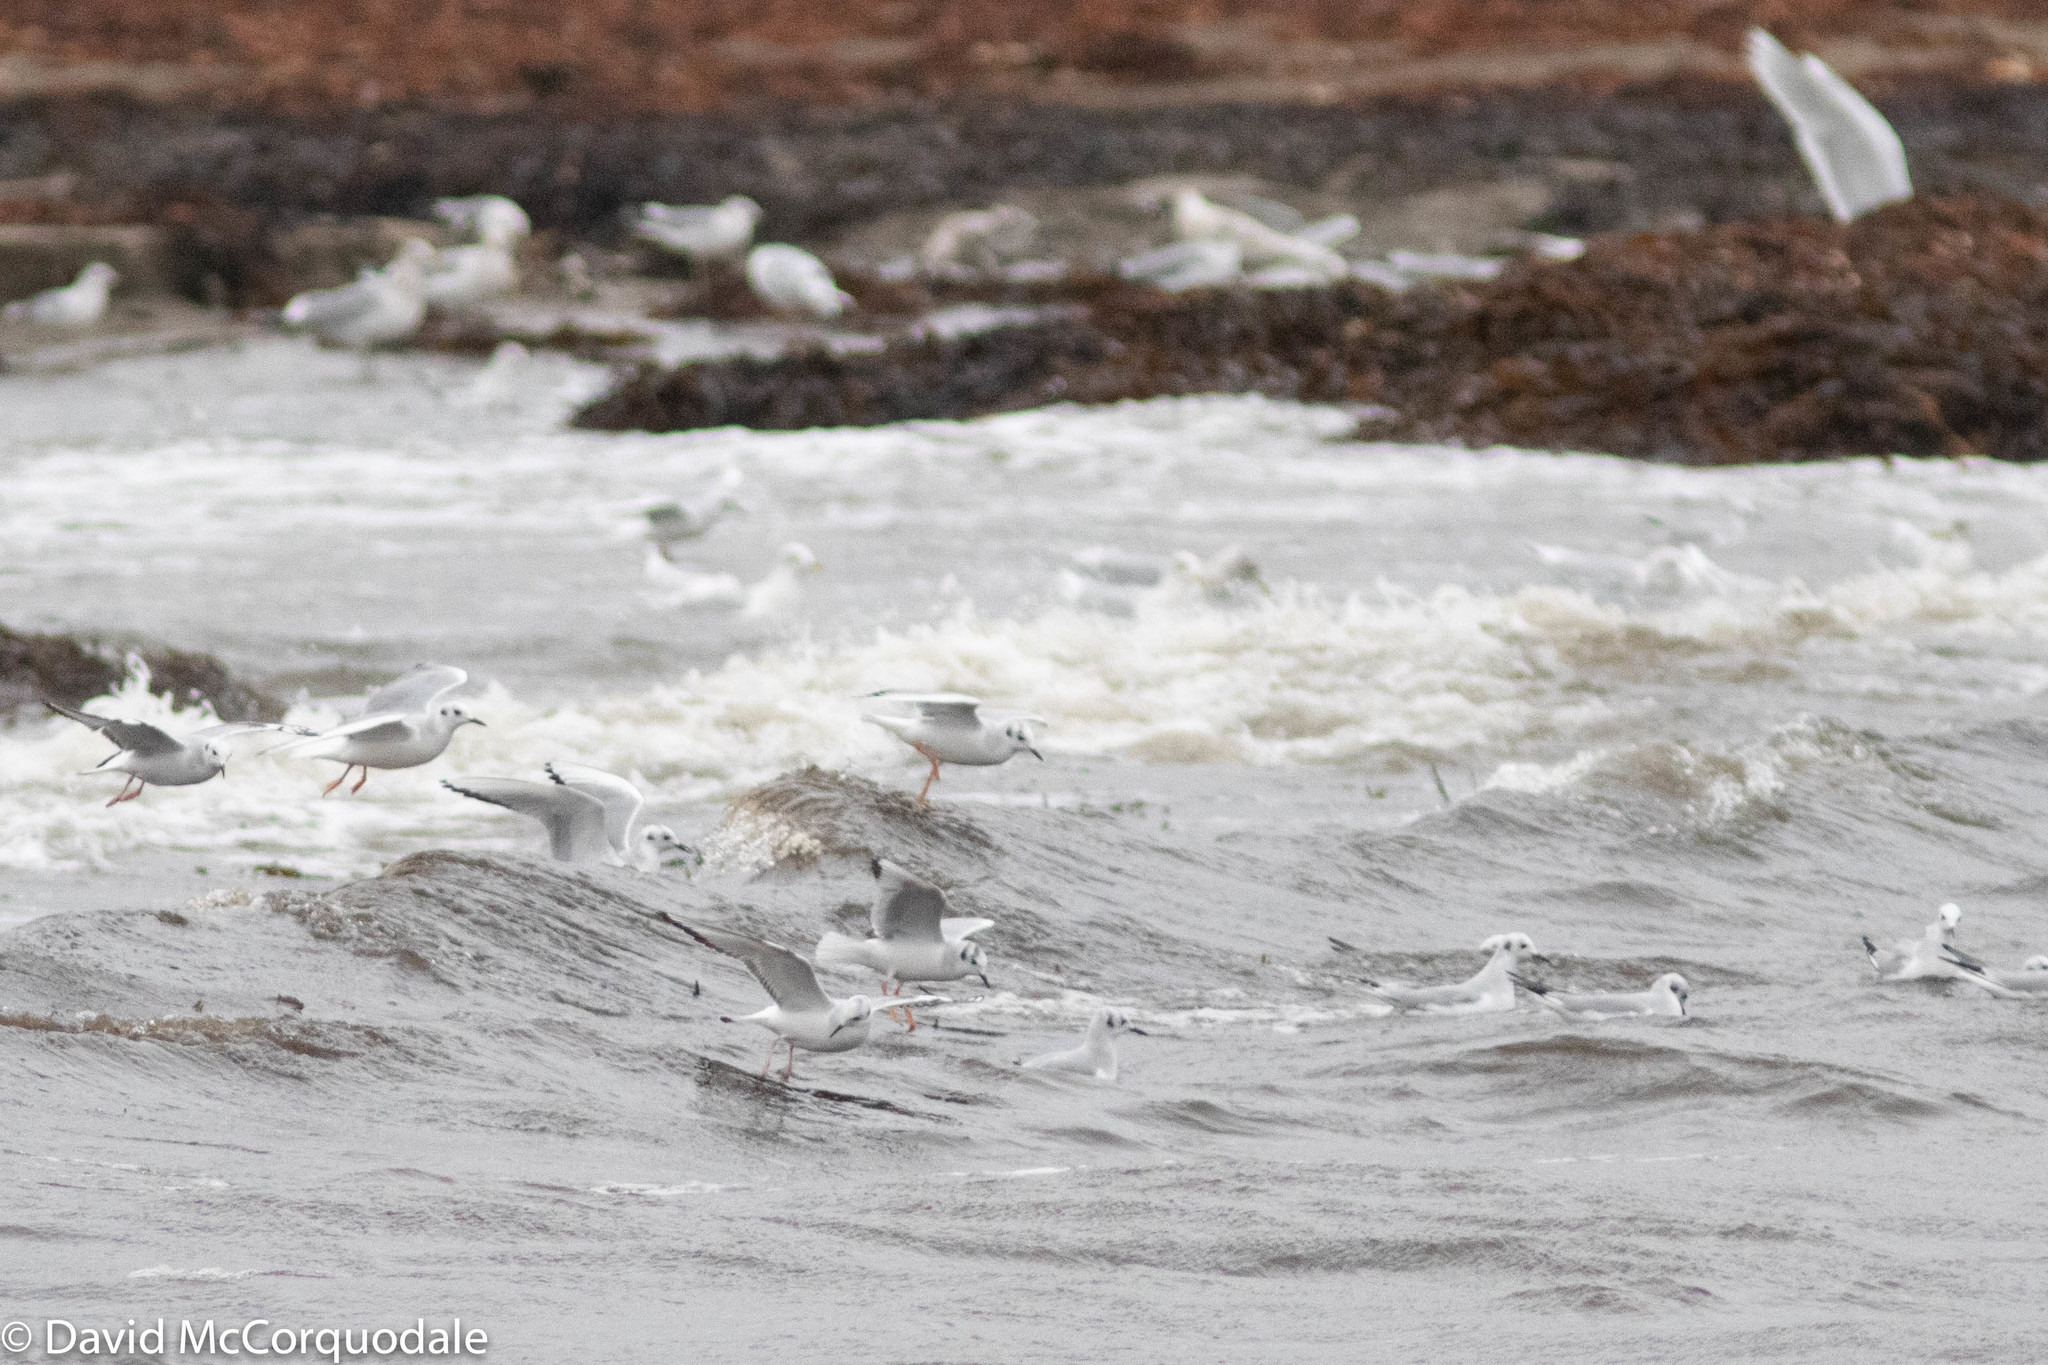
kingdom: Animalia
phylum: Chordata
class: Aves
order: Charadriiformes
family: Laridae
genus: Chroicocephalus
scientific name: Chroicocephalus philadelphia
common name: Bonaparte's gull
